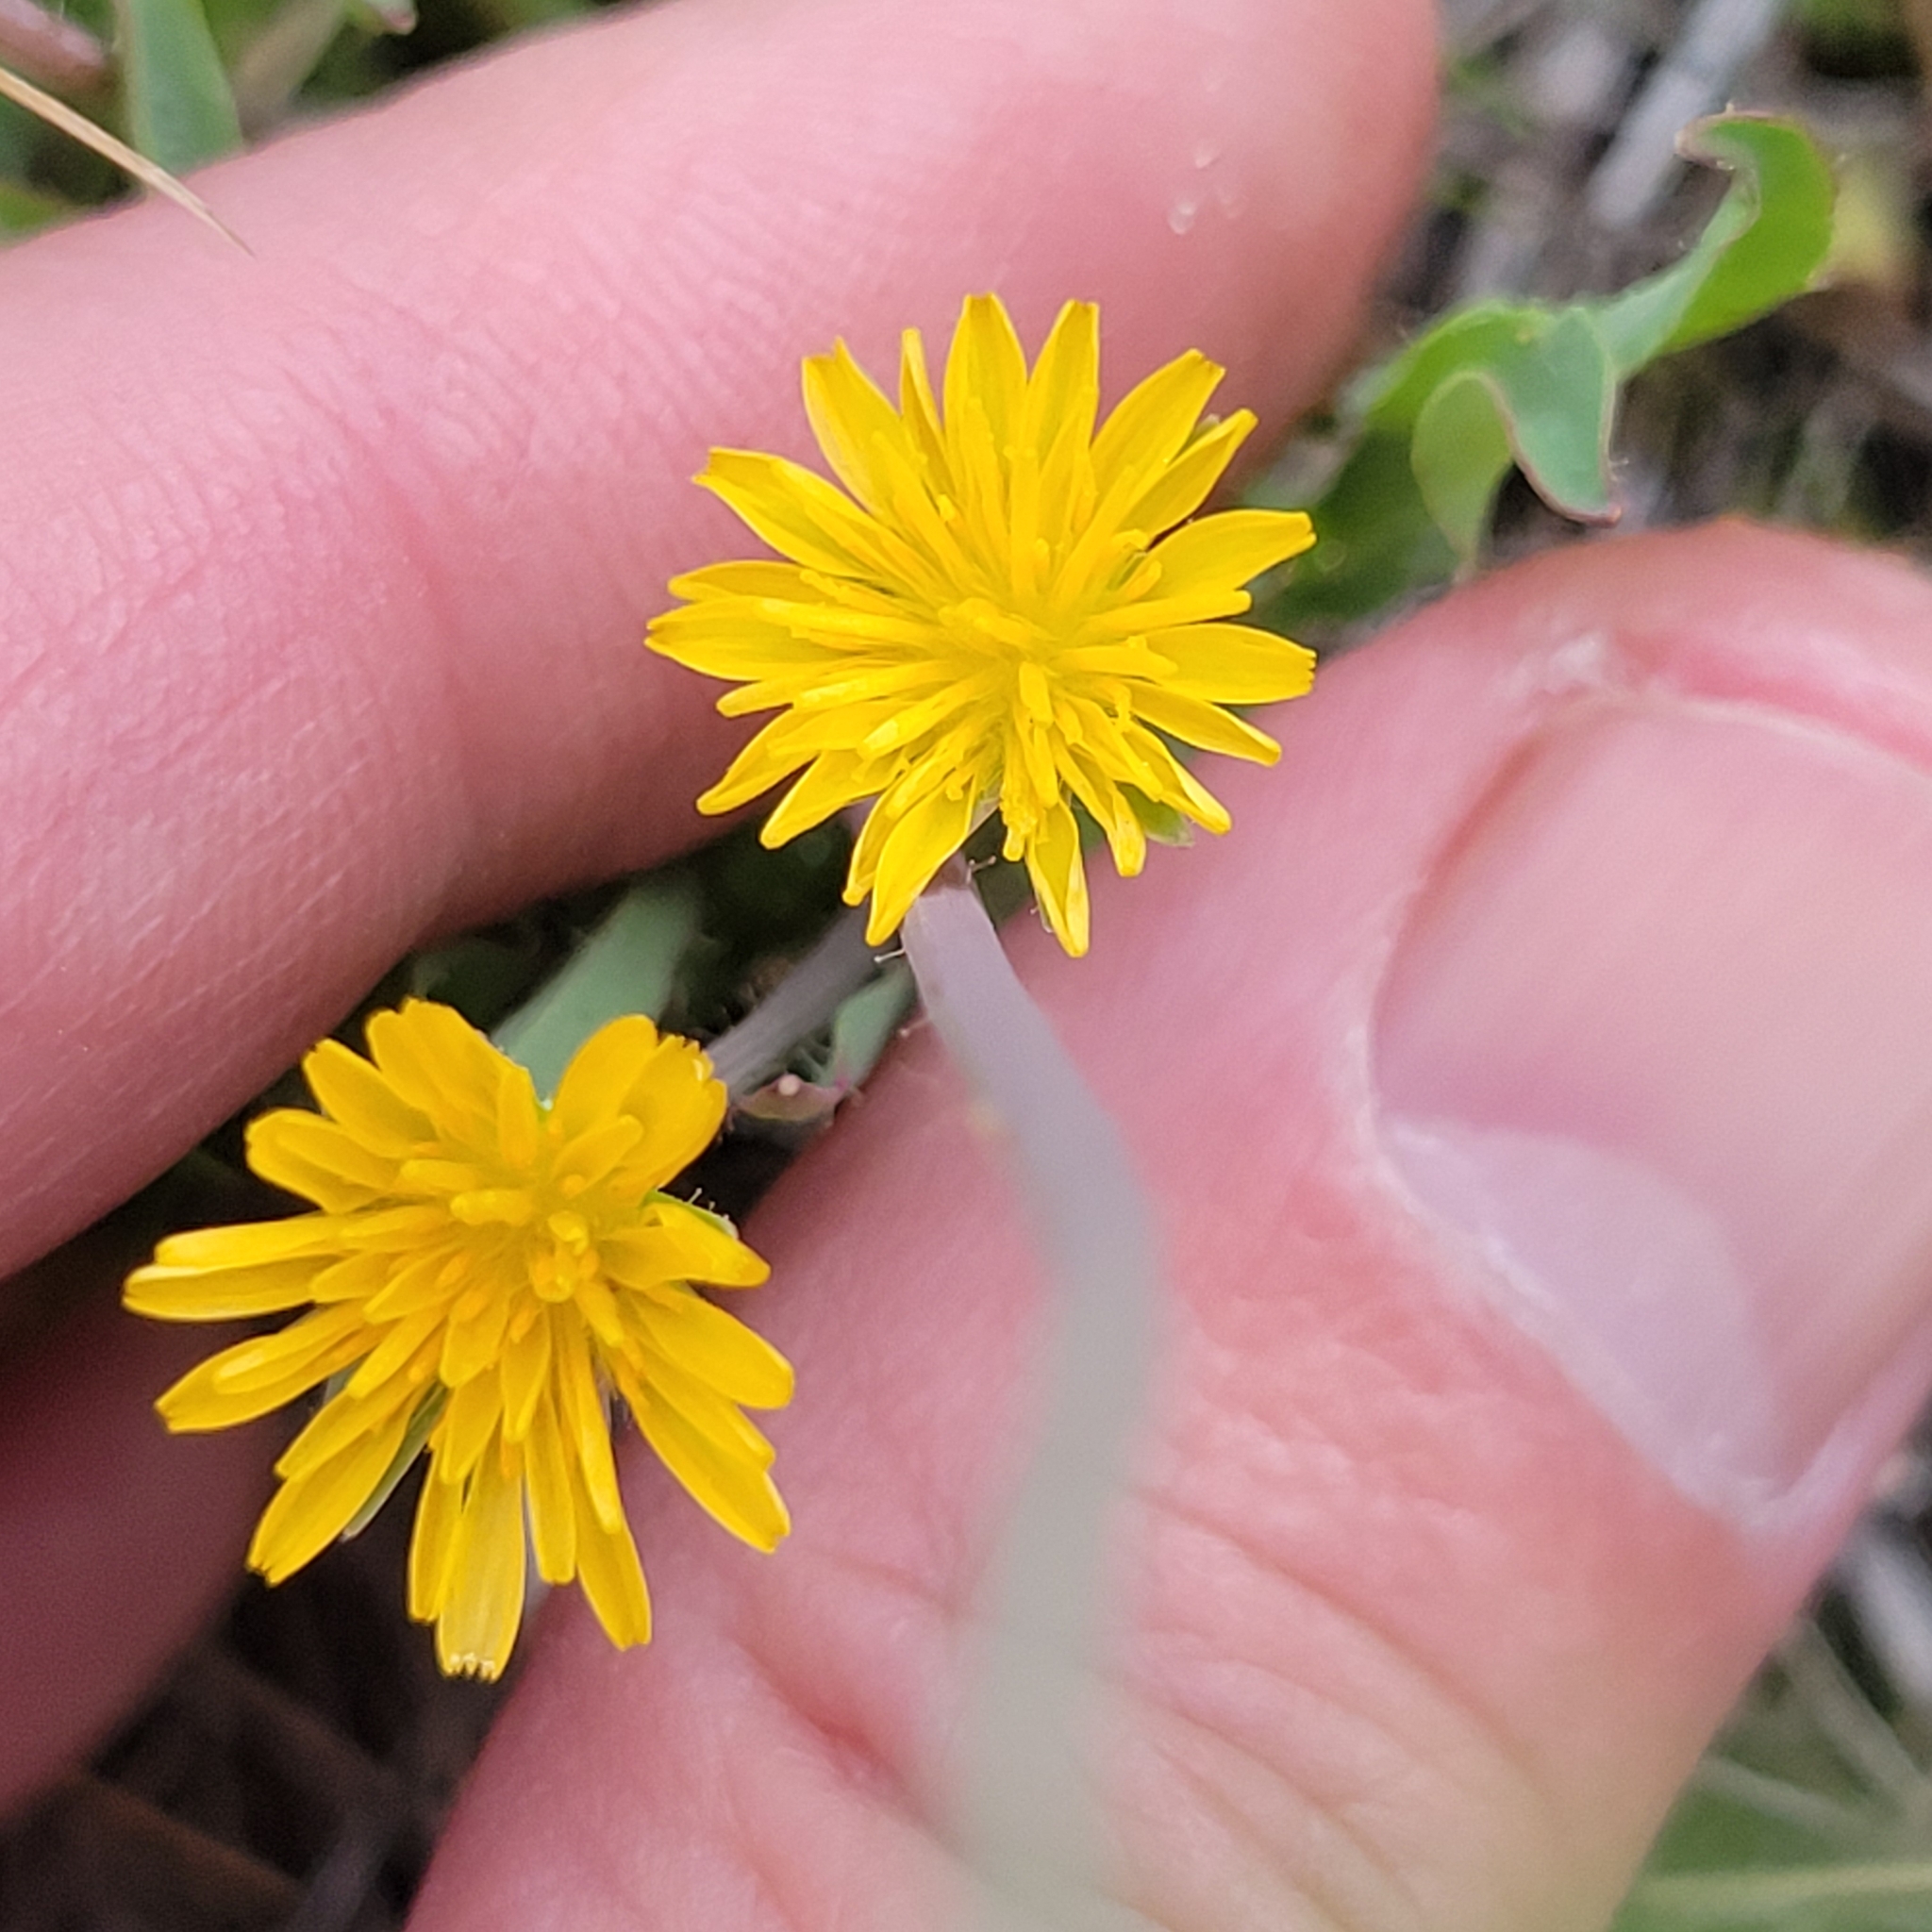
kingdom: Plantae
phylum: Tracheophyta
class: Magnoliopsida
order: Asterales
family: Asteraceae
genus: Krigia
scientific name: Krigia virginica
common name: Virginia dwarf-dandelion
